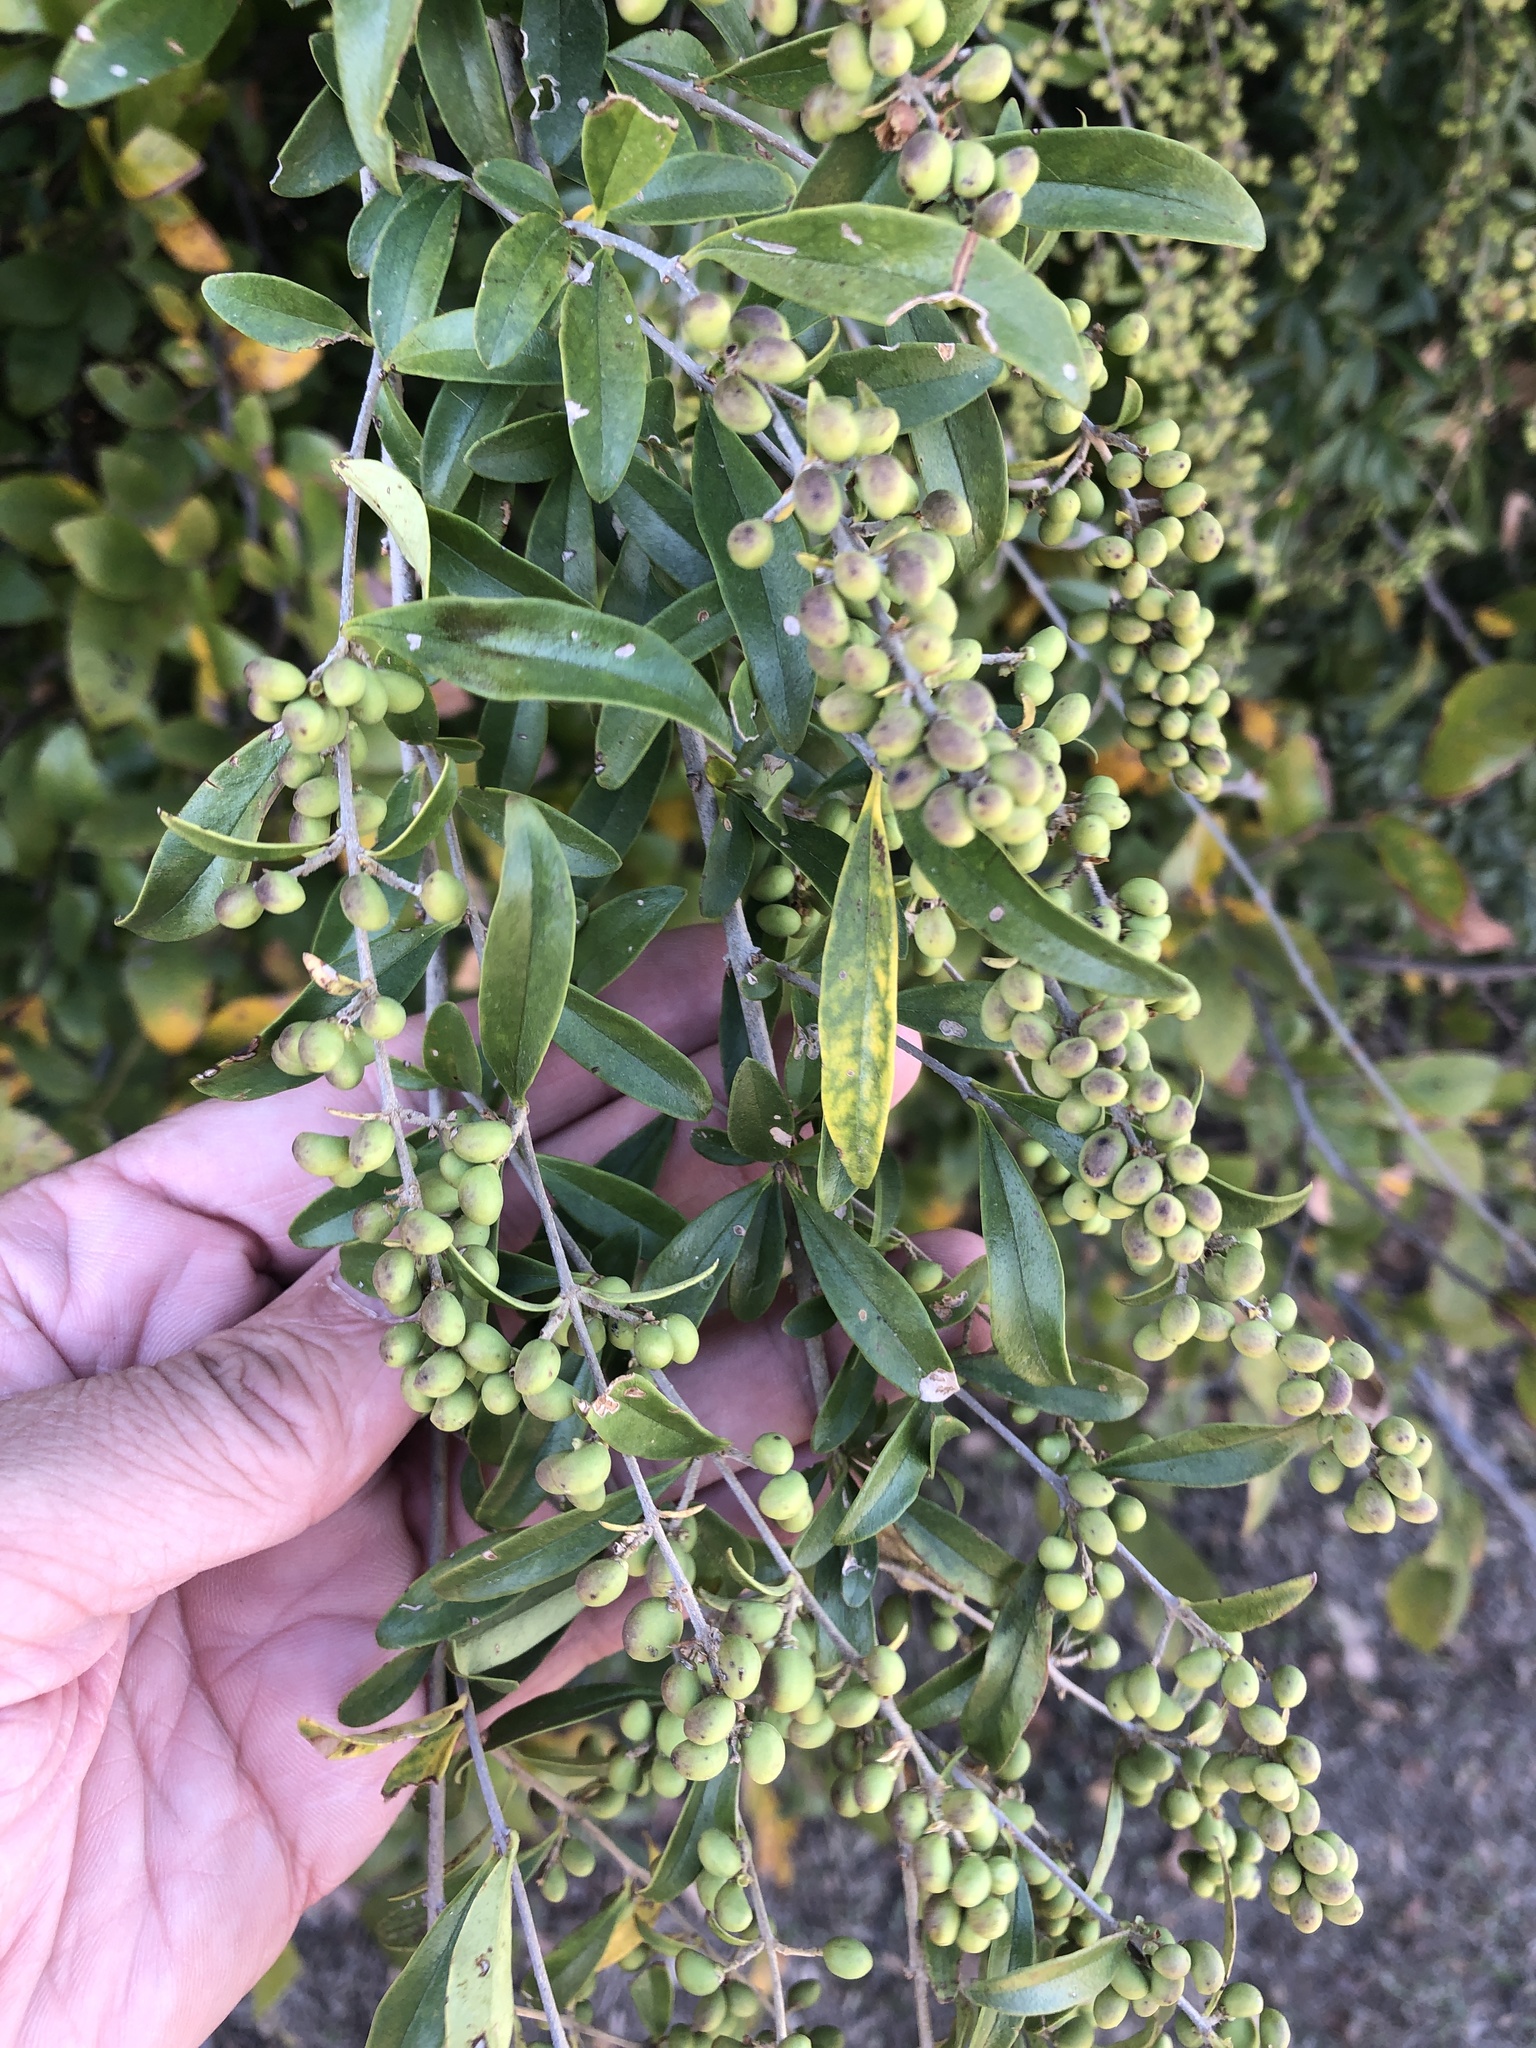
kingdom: Plantae
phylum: Tracheophyta
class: Magnoliopsida
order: Lamiales
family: Oleaceae
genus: Ligustrum
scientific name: Ligustrum quihoui
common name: Waxyleaf privet
